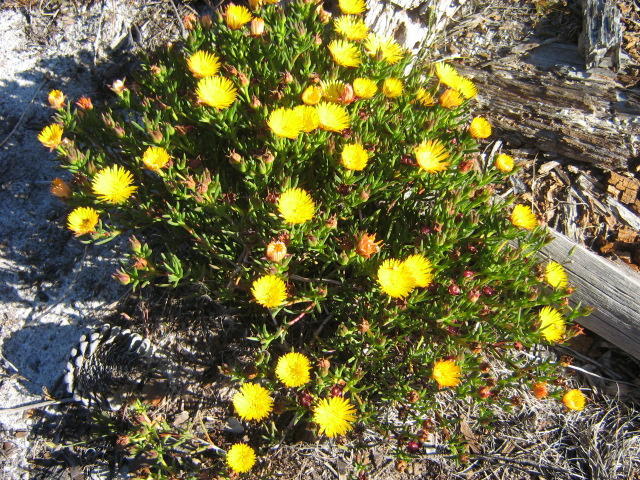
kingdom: Plantae
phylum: Tracheophyta
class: Magnoliopsida
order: Caryophyllales
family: Aizoaceae
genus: Lampranthus
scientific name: Lampranthus bicolor
